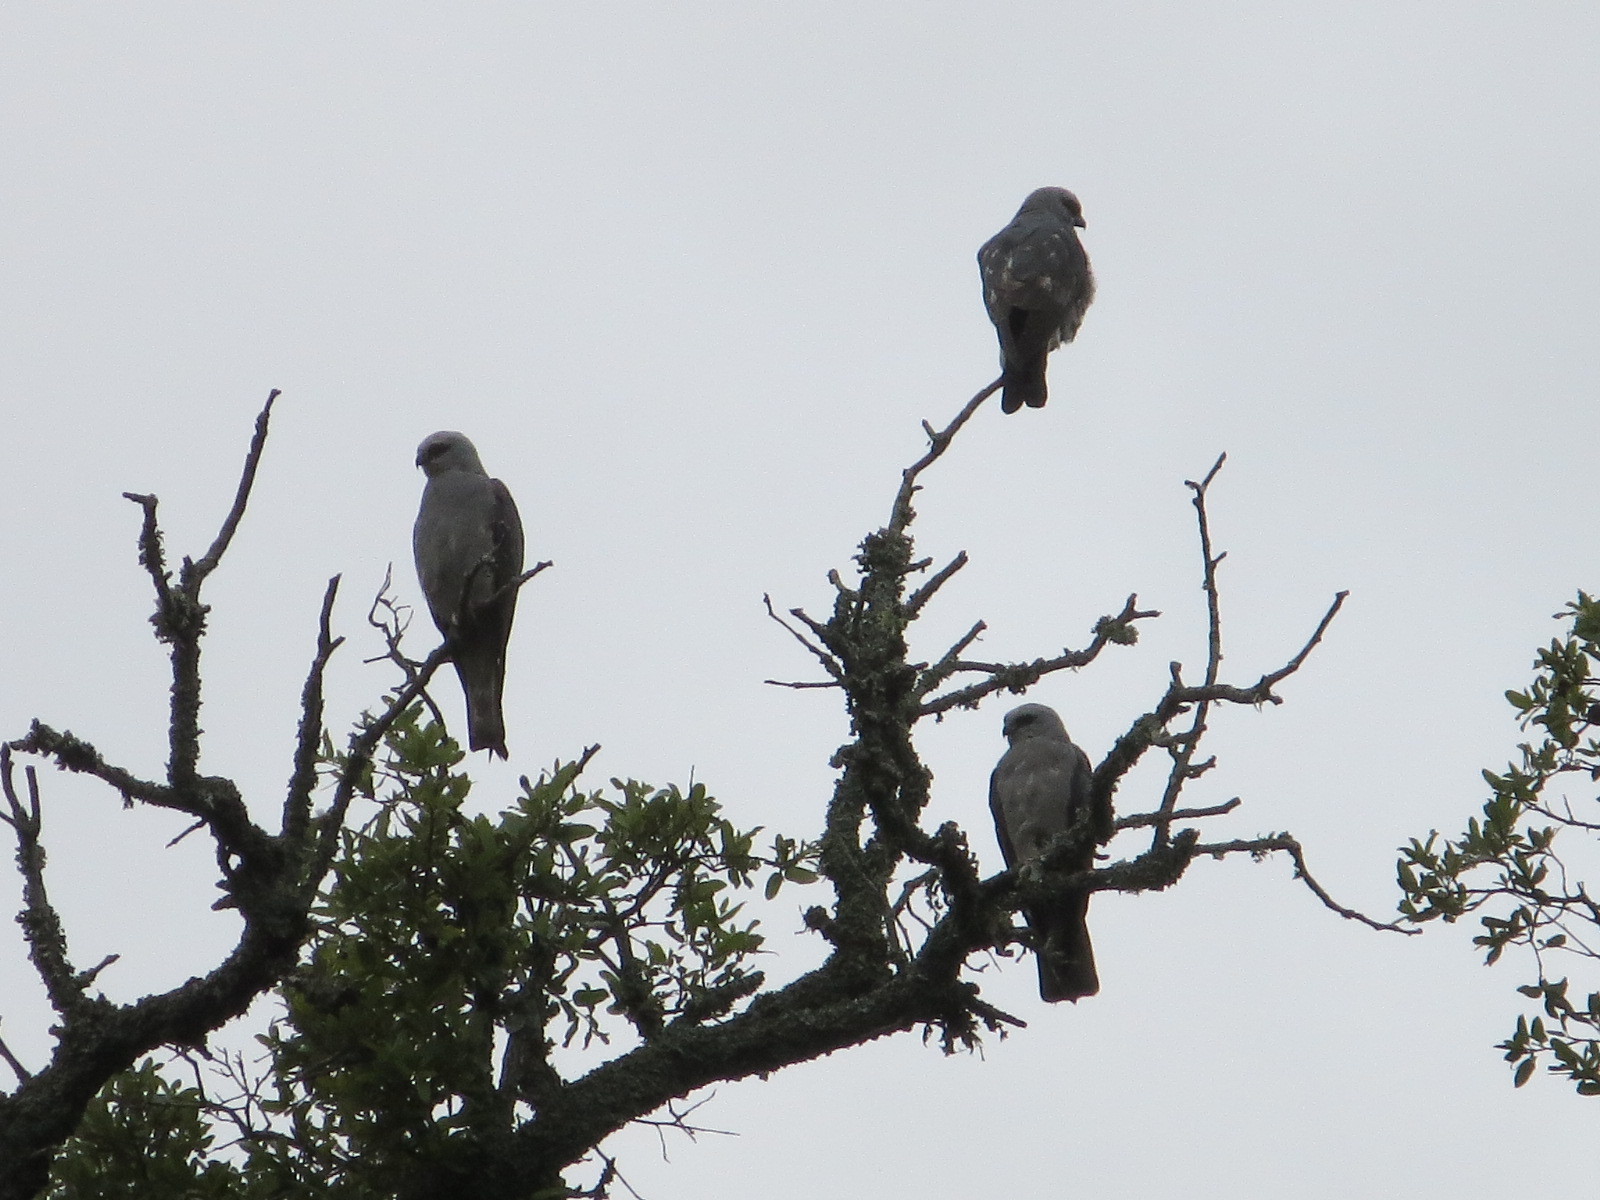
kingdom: Animalia
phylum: Chordata
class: Aves
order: Accipitriformes
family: Accipitridae
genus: Ictinia
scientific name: Ictinia mississippiensis
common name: Mississippi kite
